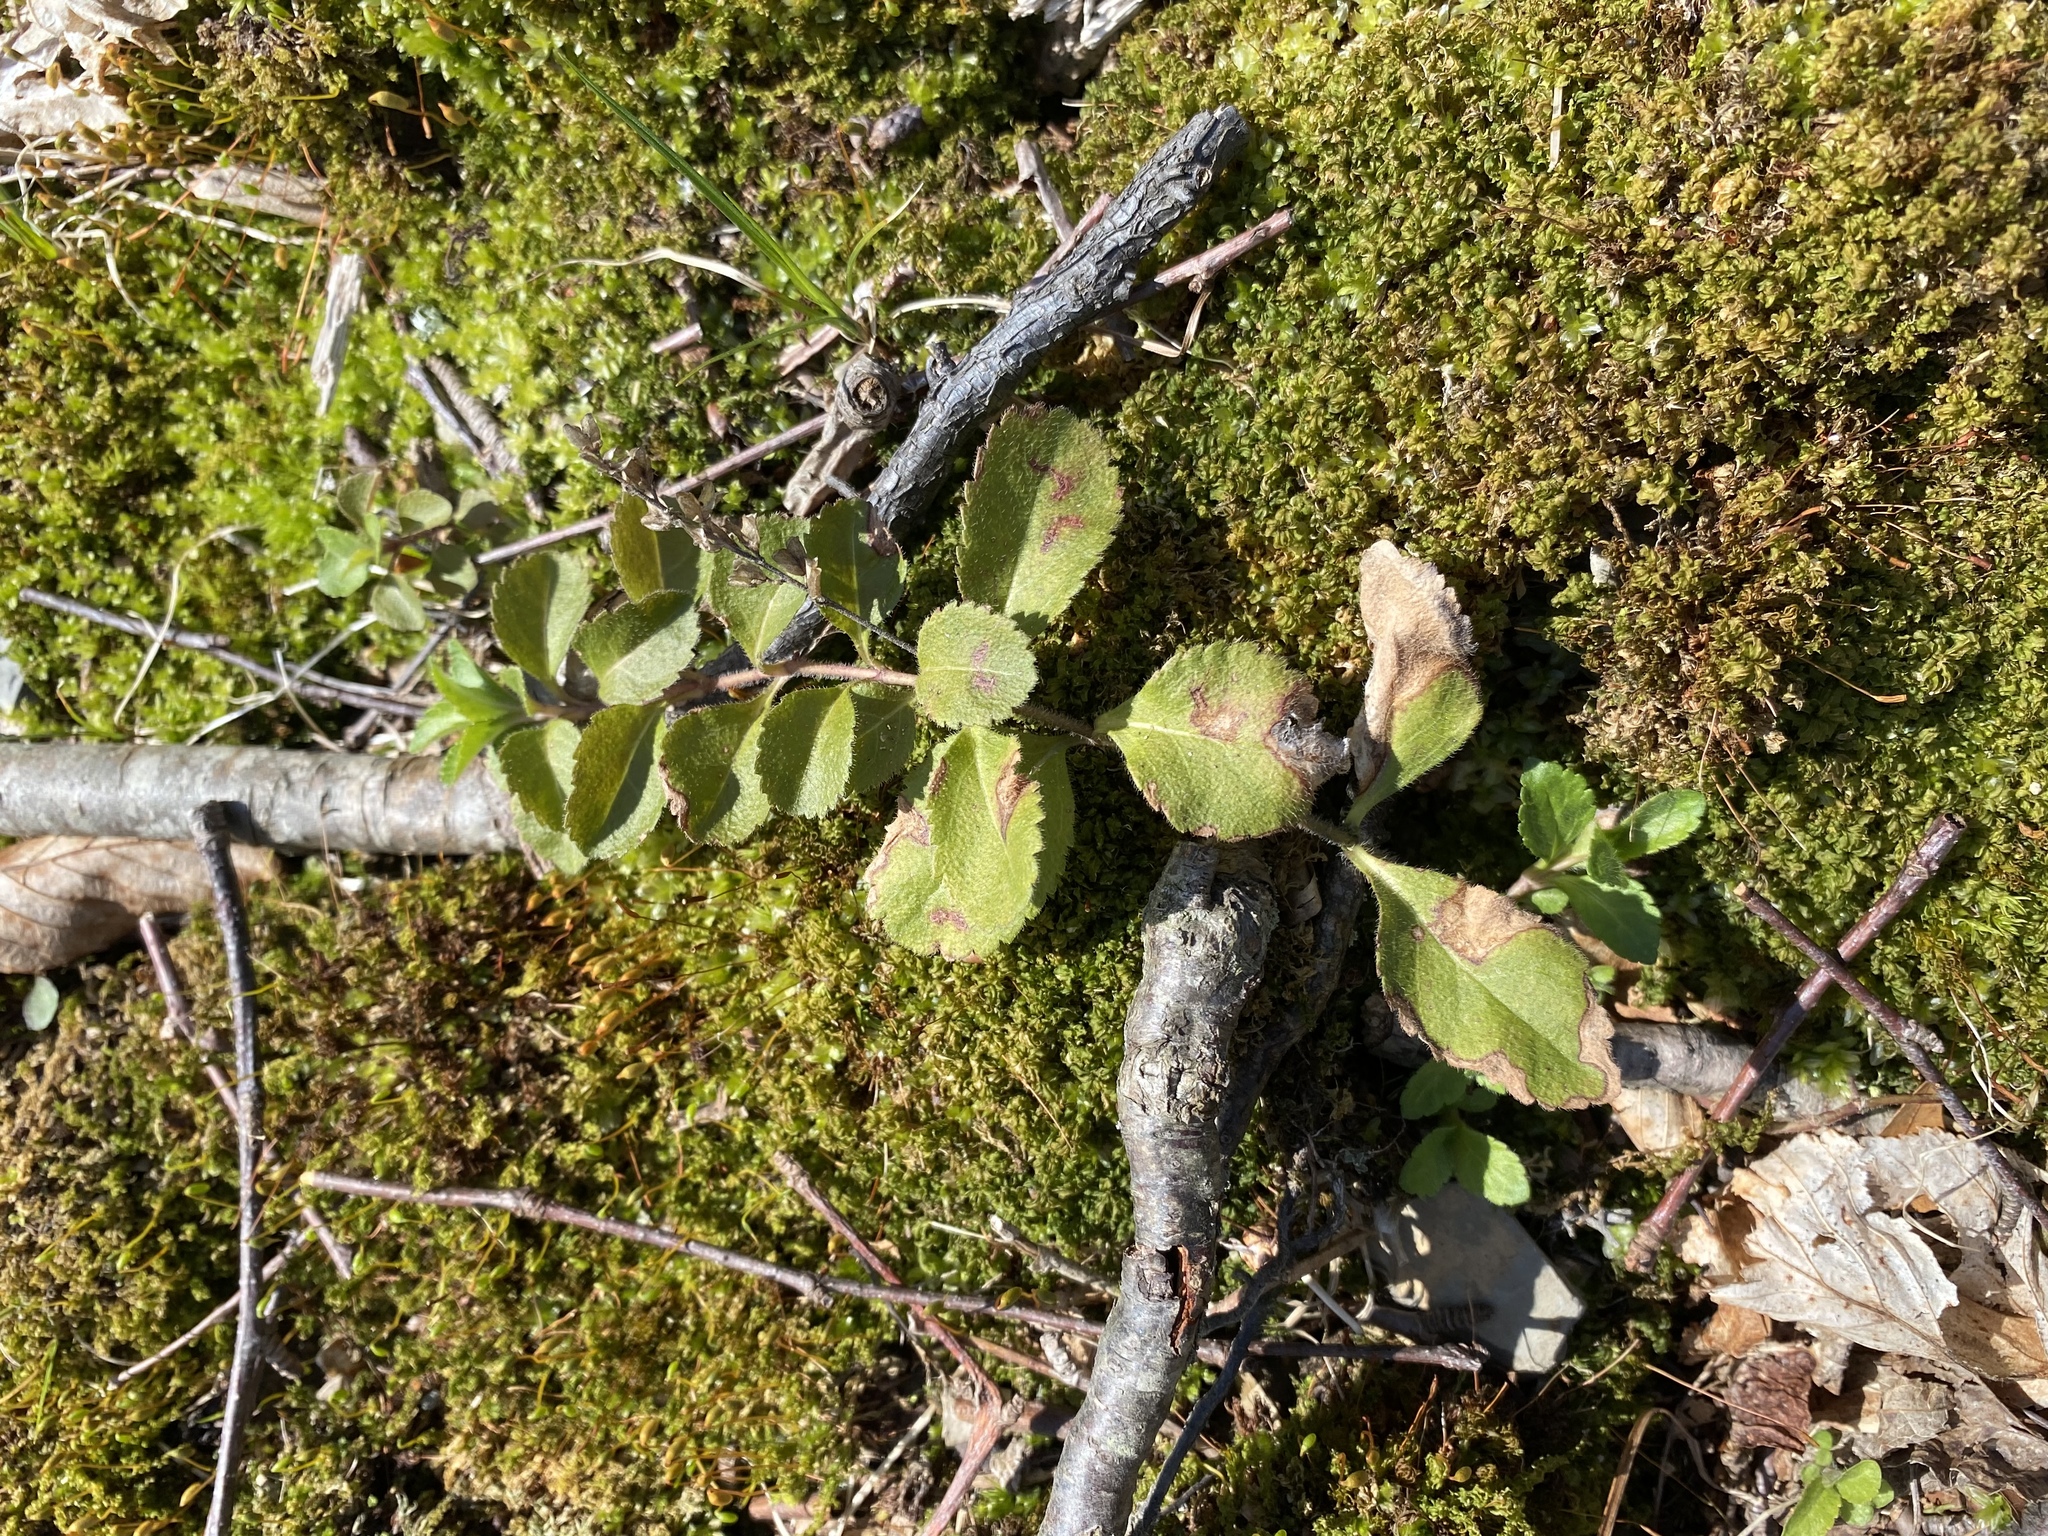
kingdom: Plantae
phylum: Tracheophyta
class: Magnoliopsida
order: Lamiales
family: Plantaginaceae
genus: Veronica
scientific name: Veronica officinalis
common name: Common speedwell
